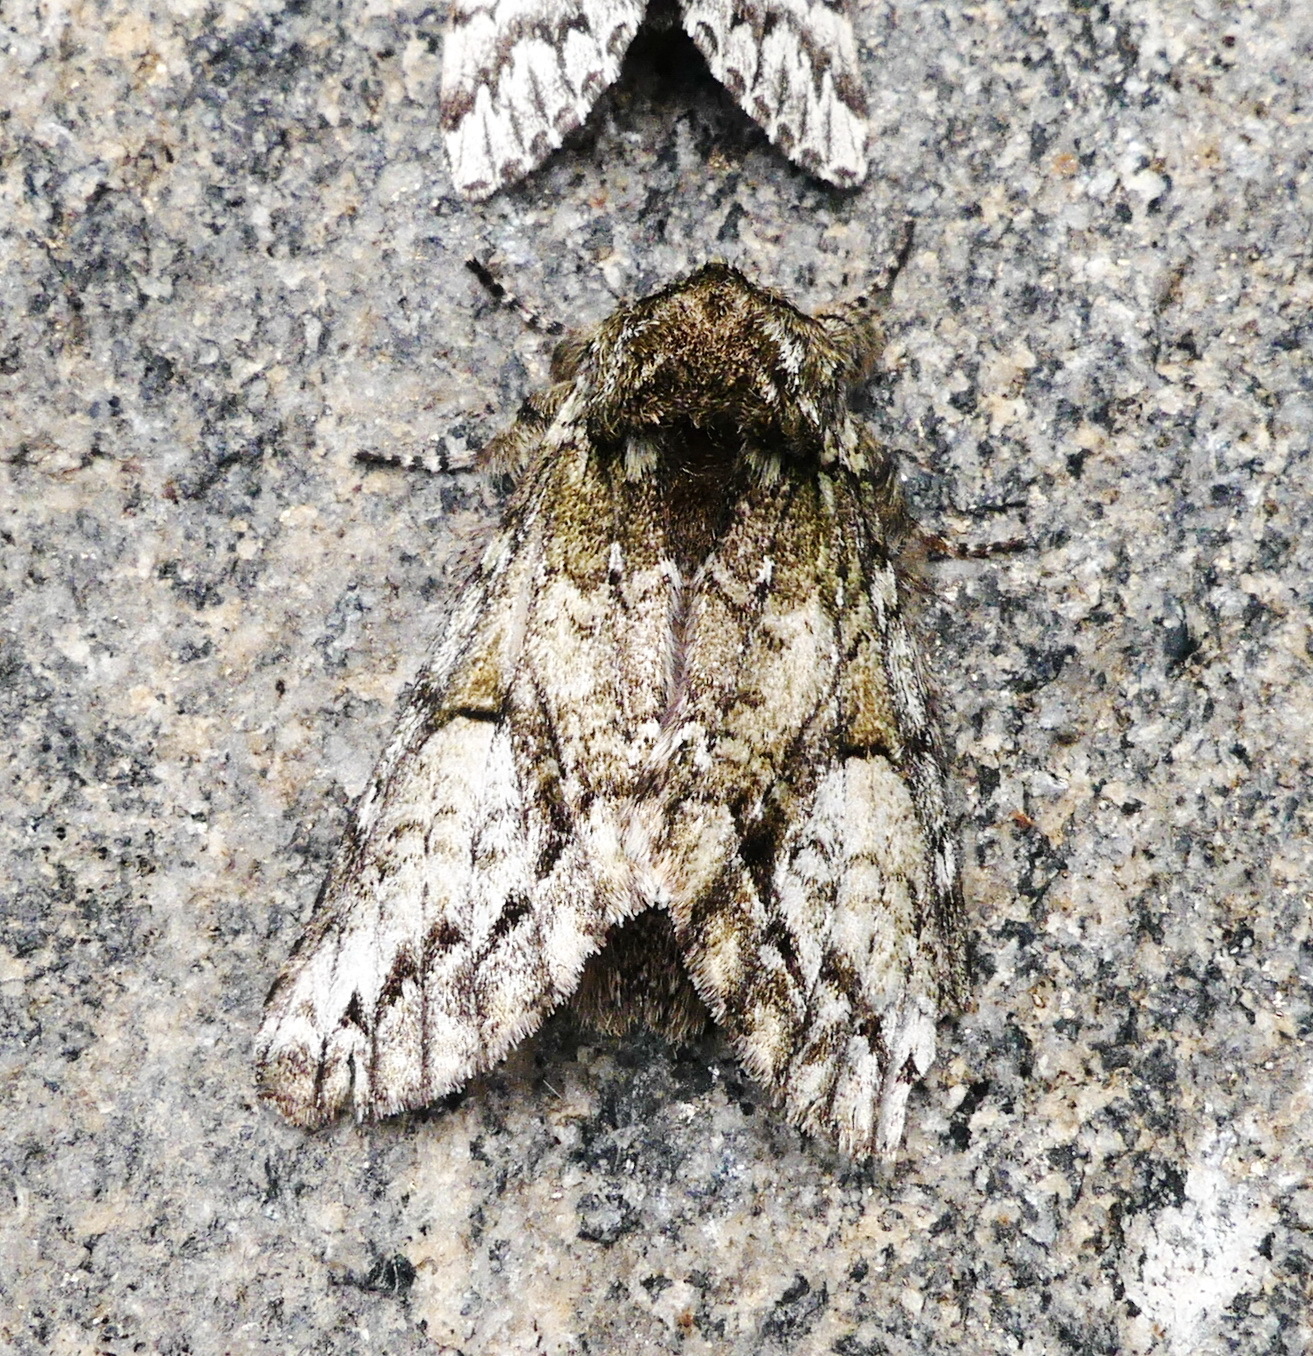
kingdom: Animalia
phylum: Arthropoda
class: Insecta
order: Lepidoptera
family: Notodontidae
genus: Heterocampa
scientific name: Heterocampa
